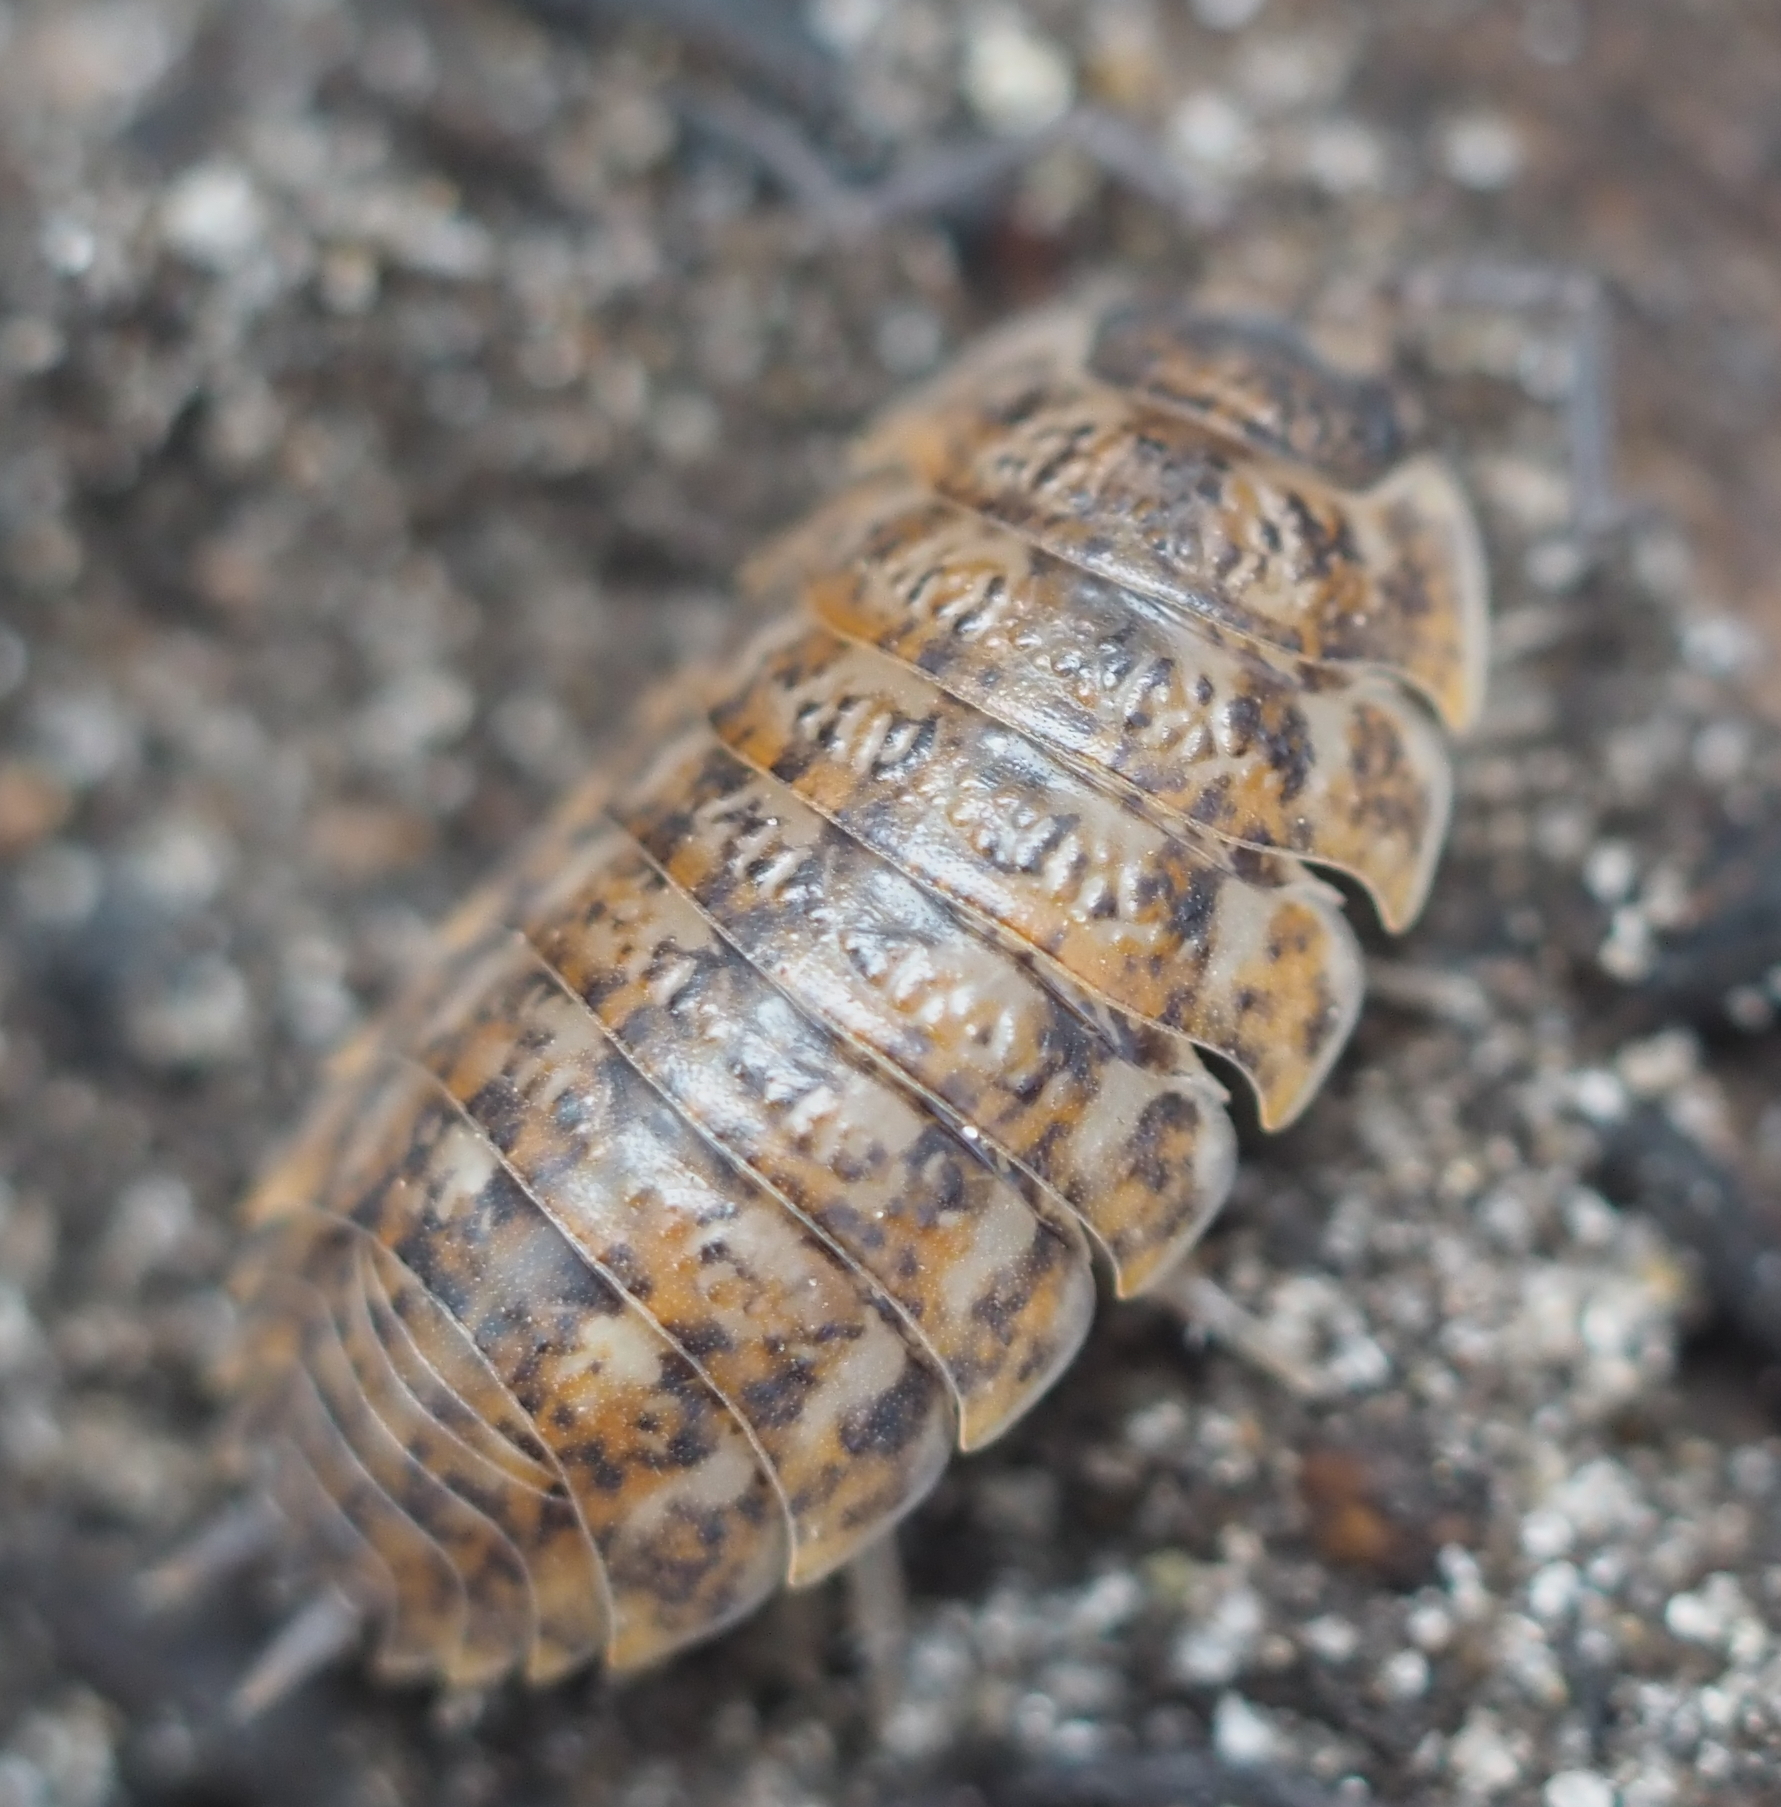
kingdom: Animalia
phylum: Arthropoda
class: Malacostraca
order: Isopoda
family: Trachelipodidae
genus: Trachelipus
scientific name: Trachelipus rathkii
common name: Isopod
